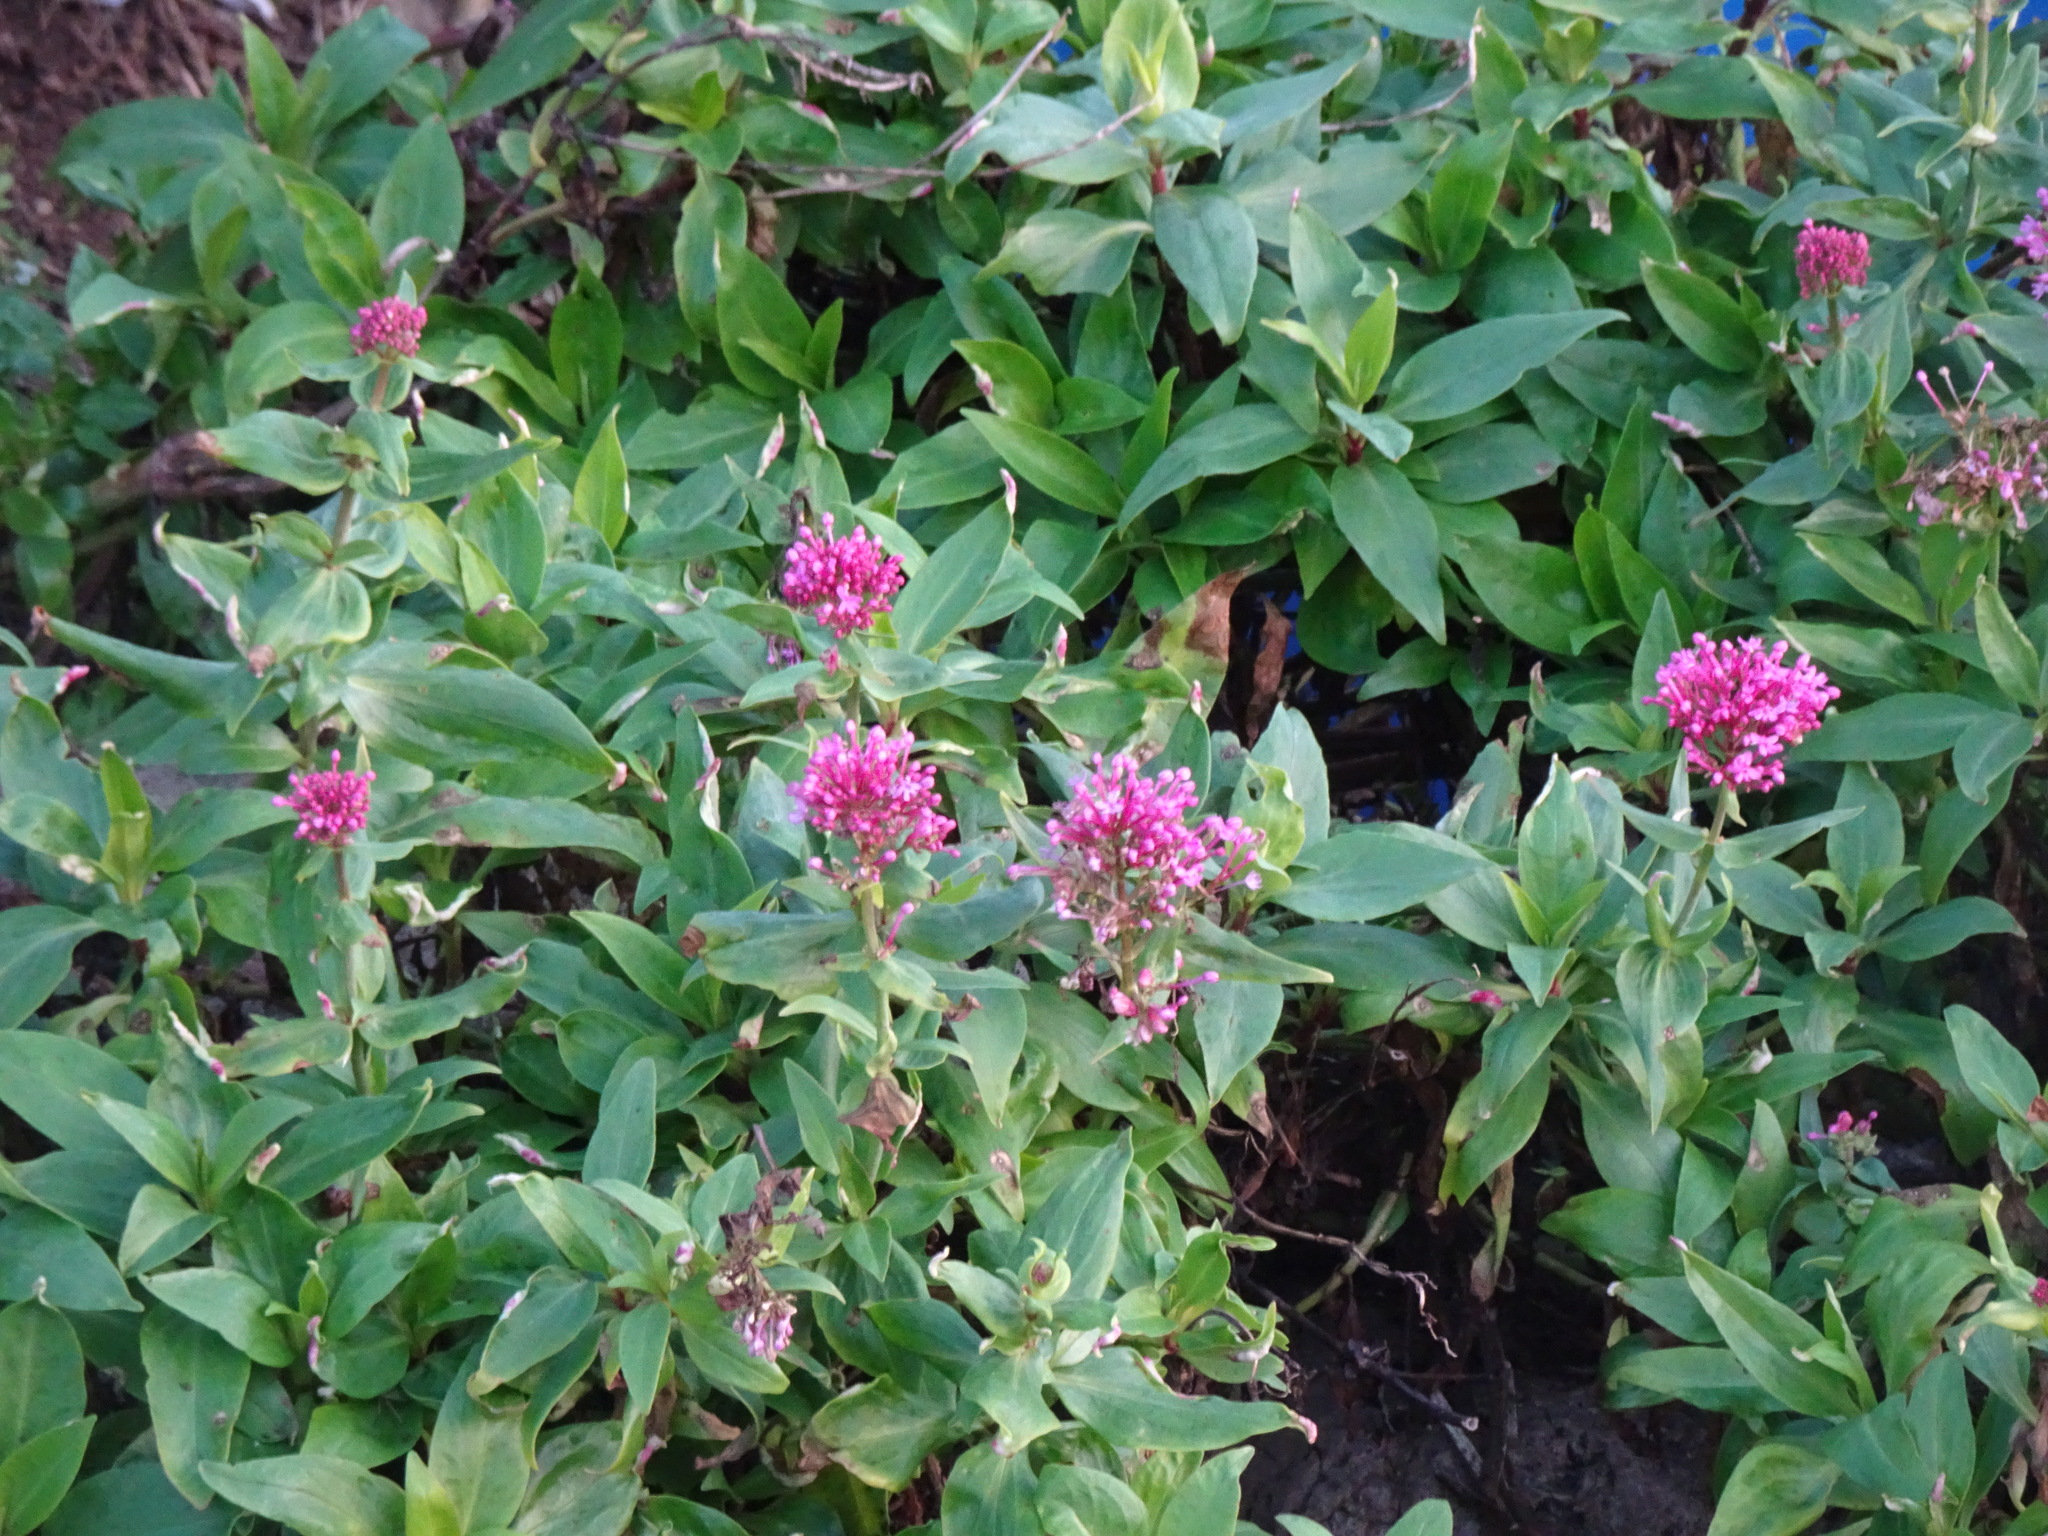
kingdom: Plantae
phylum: Tracheophyta
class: Magnoliopsida
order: Dipsacales
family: Caprifoliaceae
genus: Centranthus
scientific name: Centranthus ruber
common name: Red valerian
